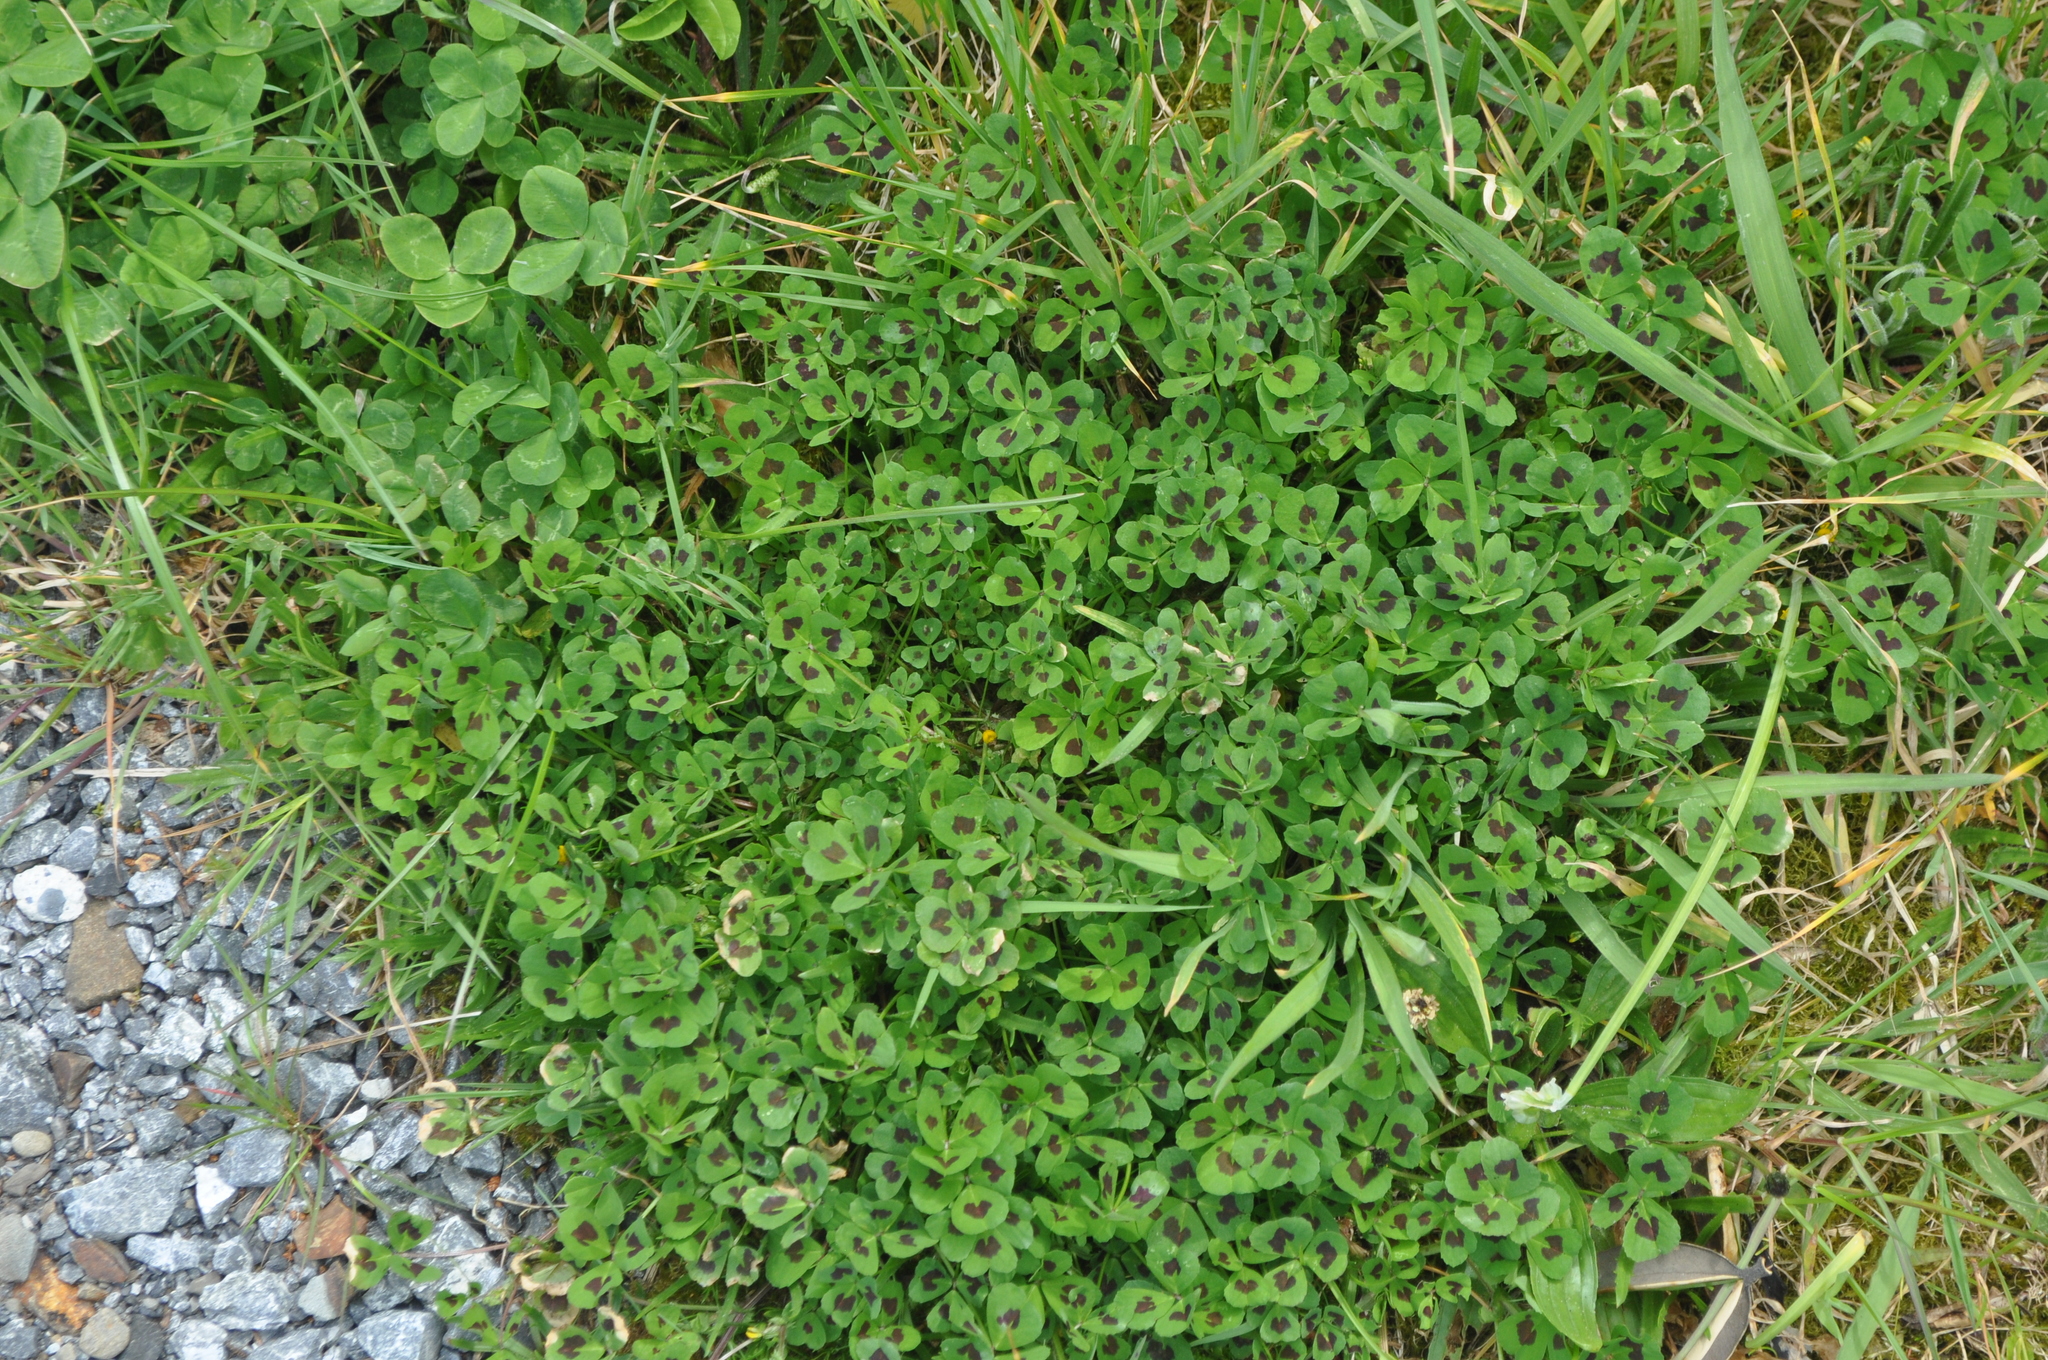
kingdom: Plantae
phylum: Tracheophyta
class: Magnoliopsida
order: Fabales
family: Fabaceae
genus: Medicago
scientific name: Medicago arabica
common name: Spotted medick
